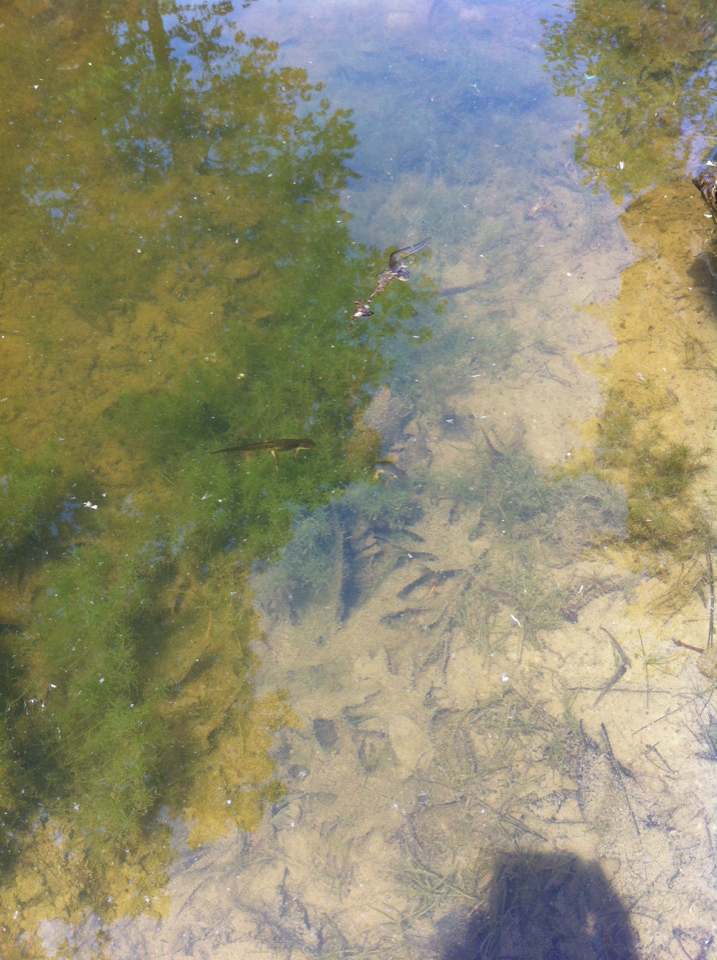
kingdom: Animalia
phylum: Chordata
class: Amphibia
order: Caudata
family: Salamandridae
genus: Notophthalmus
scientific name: Notophthalmus viridescens
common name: Eastern newt
